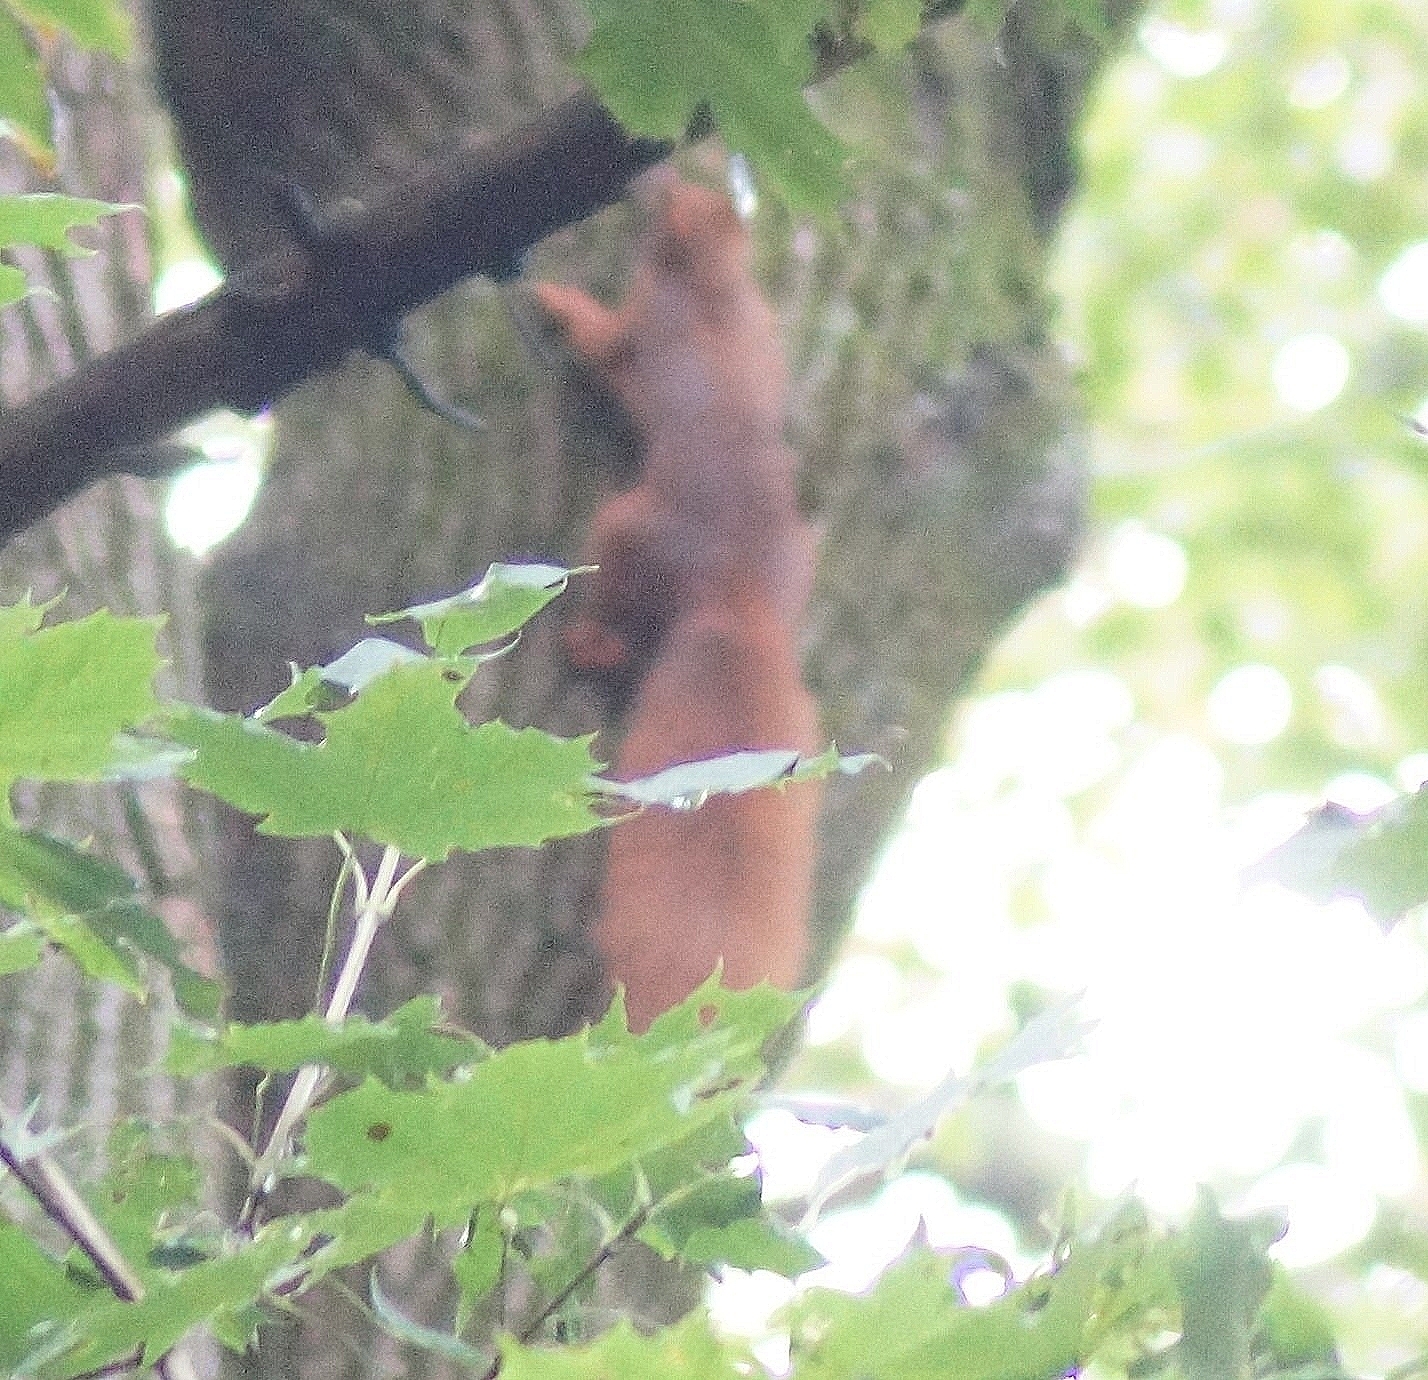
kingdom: Animalia
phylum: Chordata
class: Mammalia
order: Rodentia
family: Sciuridae
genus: Sciurus
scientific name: Sciurus vulgaris
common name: Eurasian red squirrel
